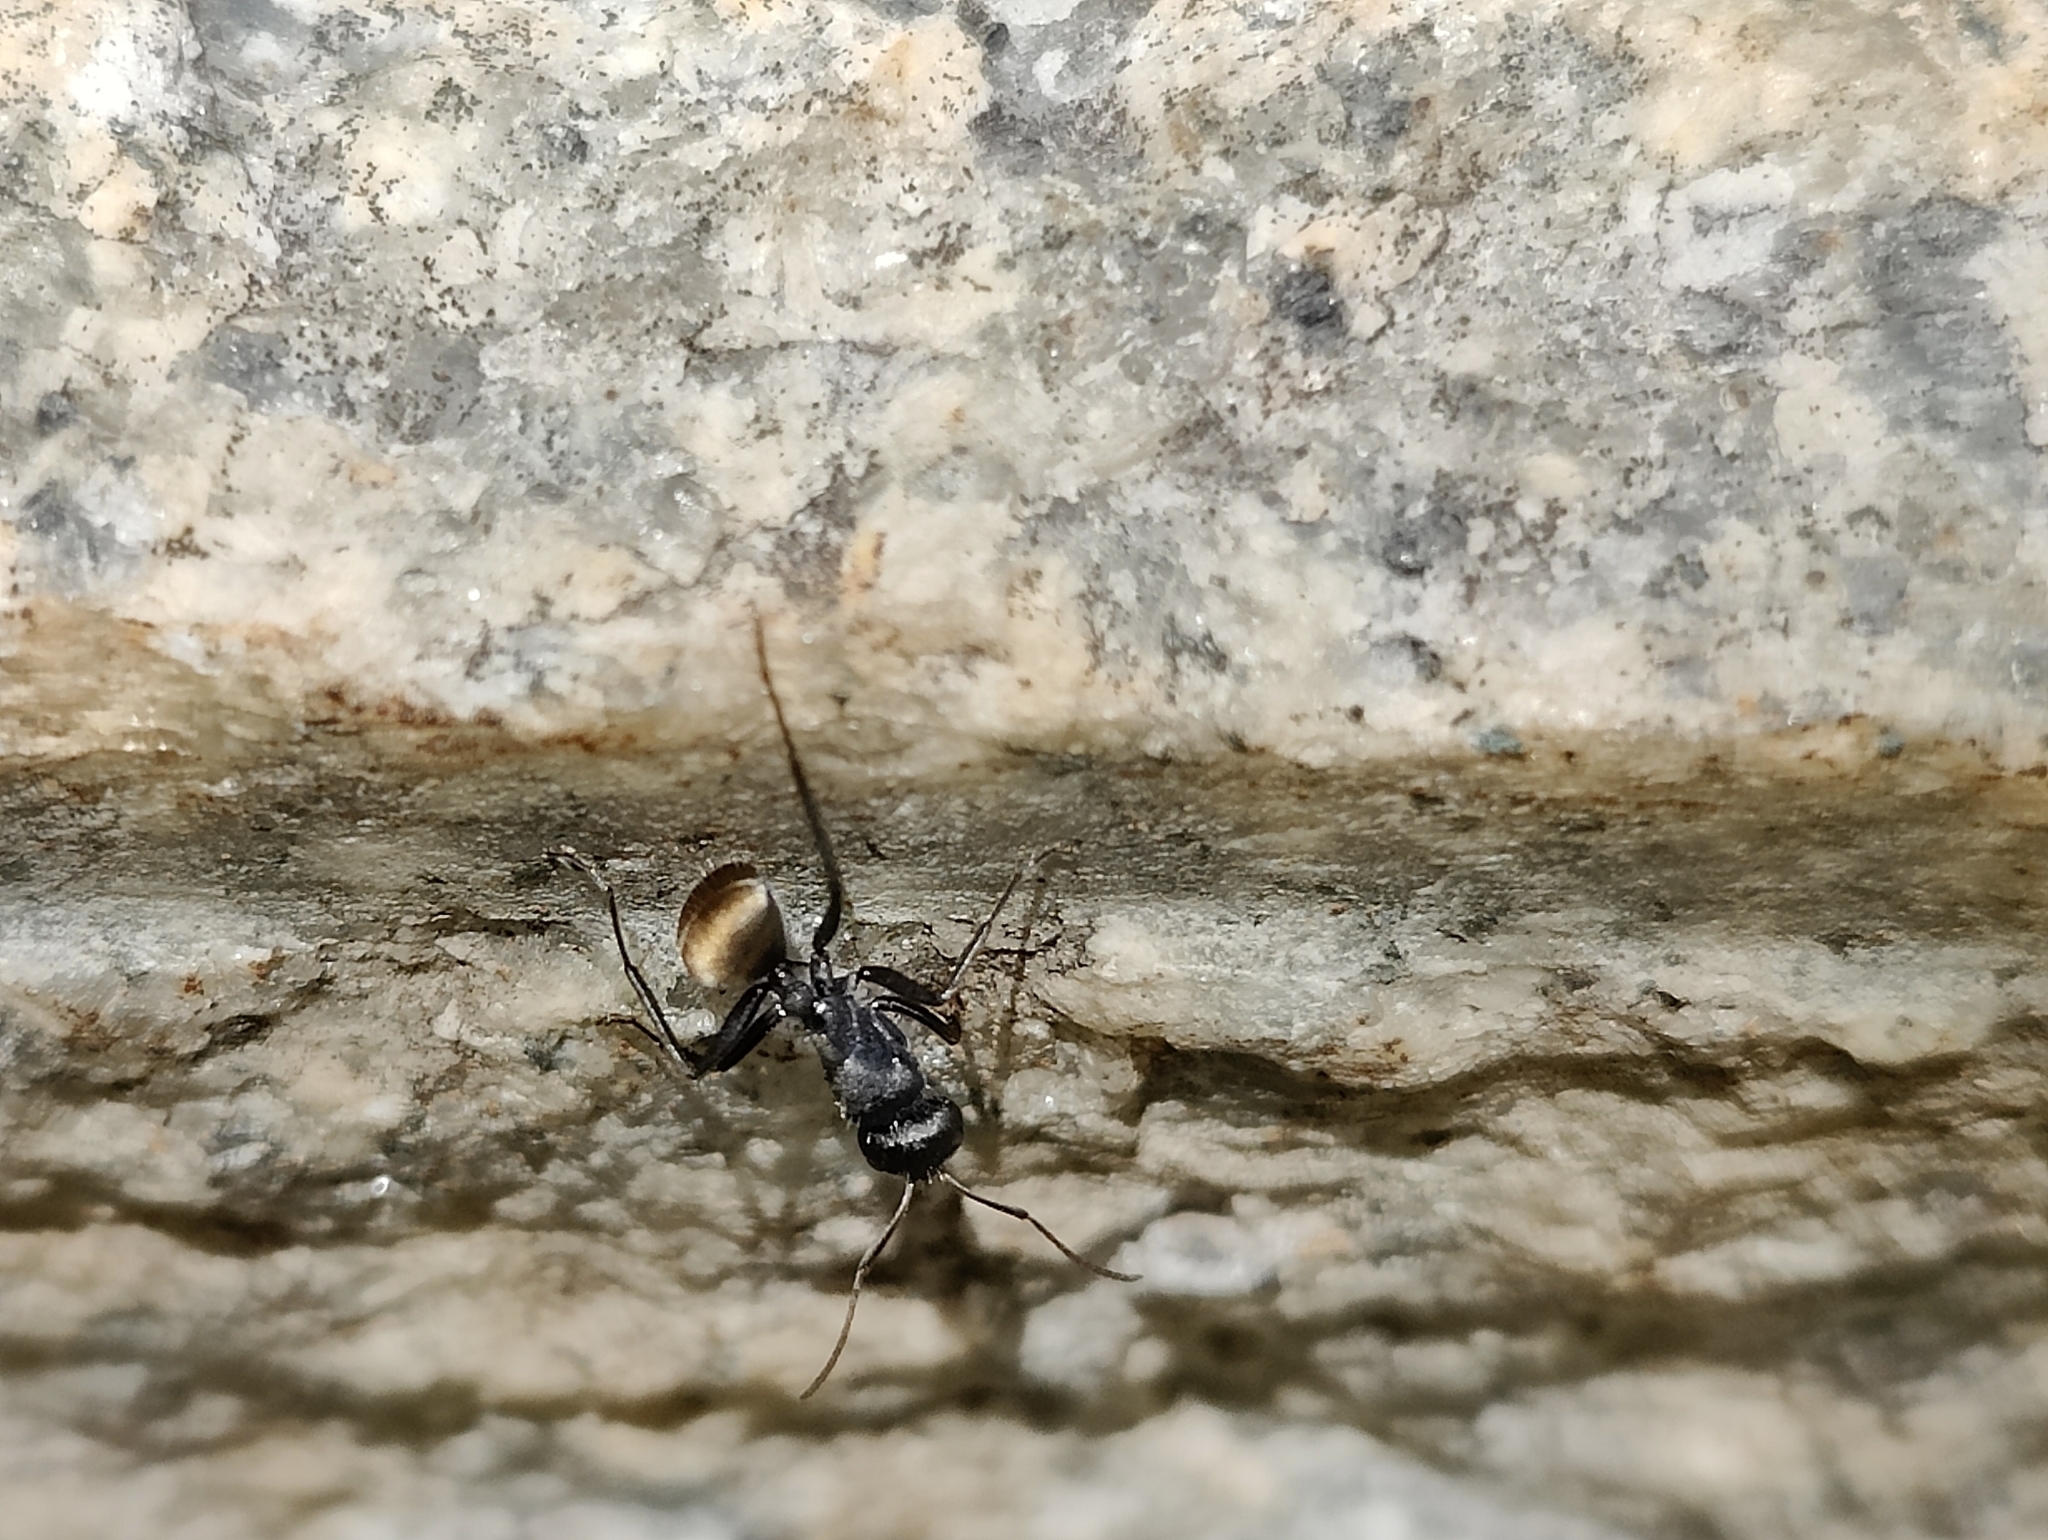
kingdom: Animalia
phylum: Arthropoda
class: Insecta
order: Hymenoptera
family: Formicidae
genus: Camponotus
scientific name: Camponotus sericeus
